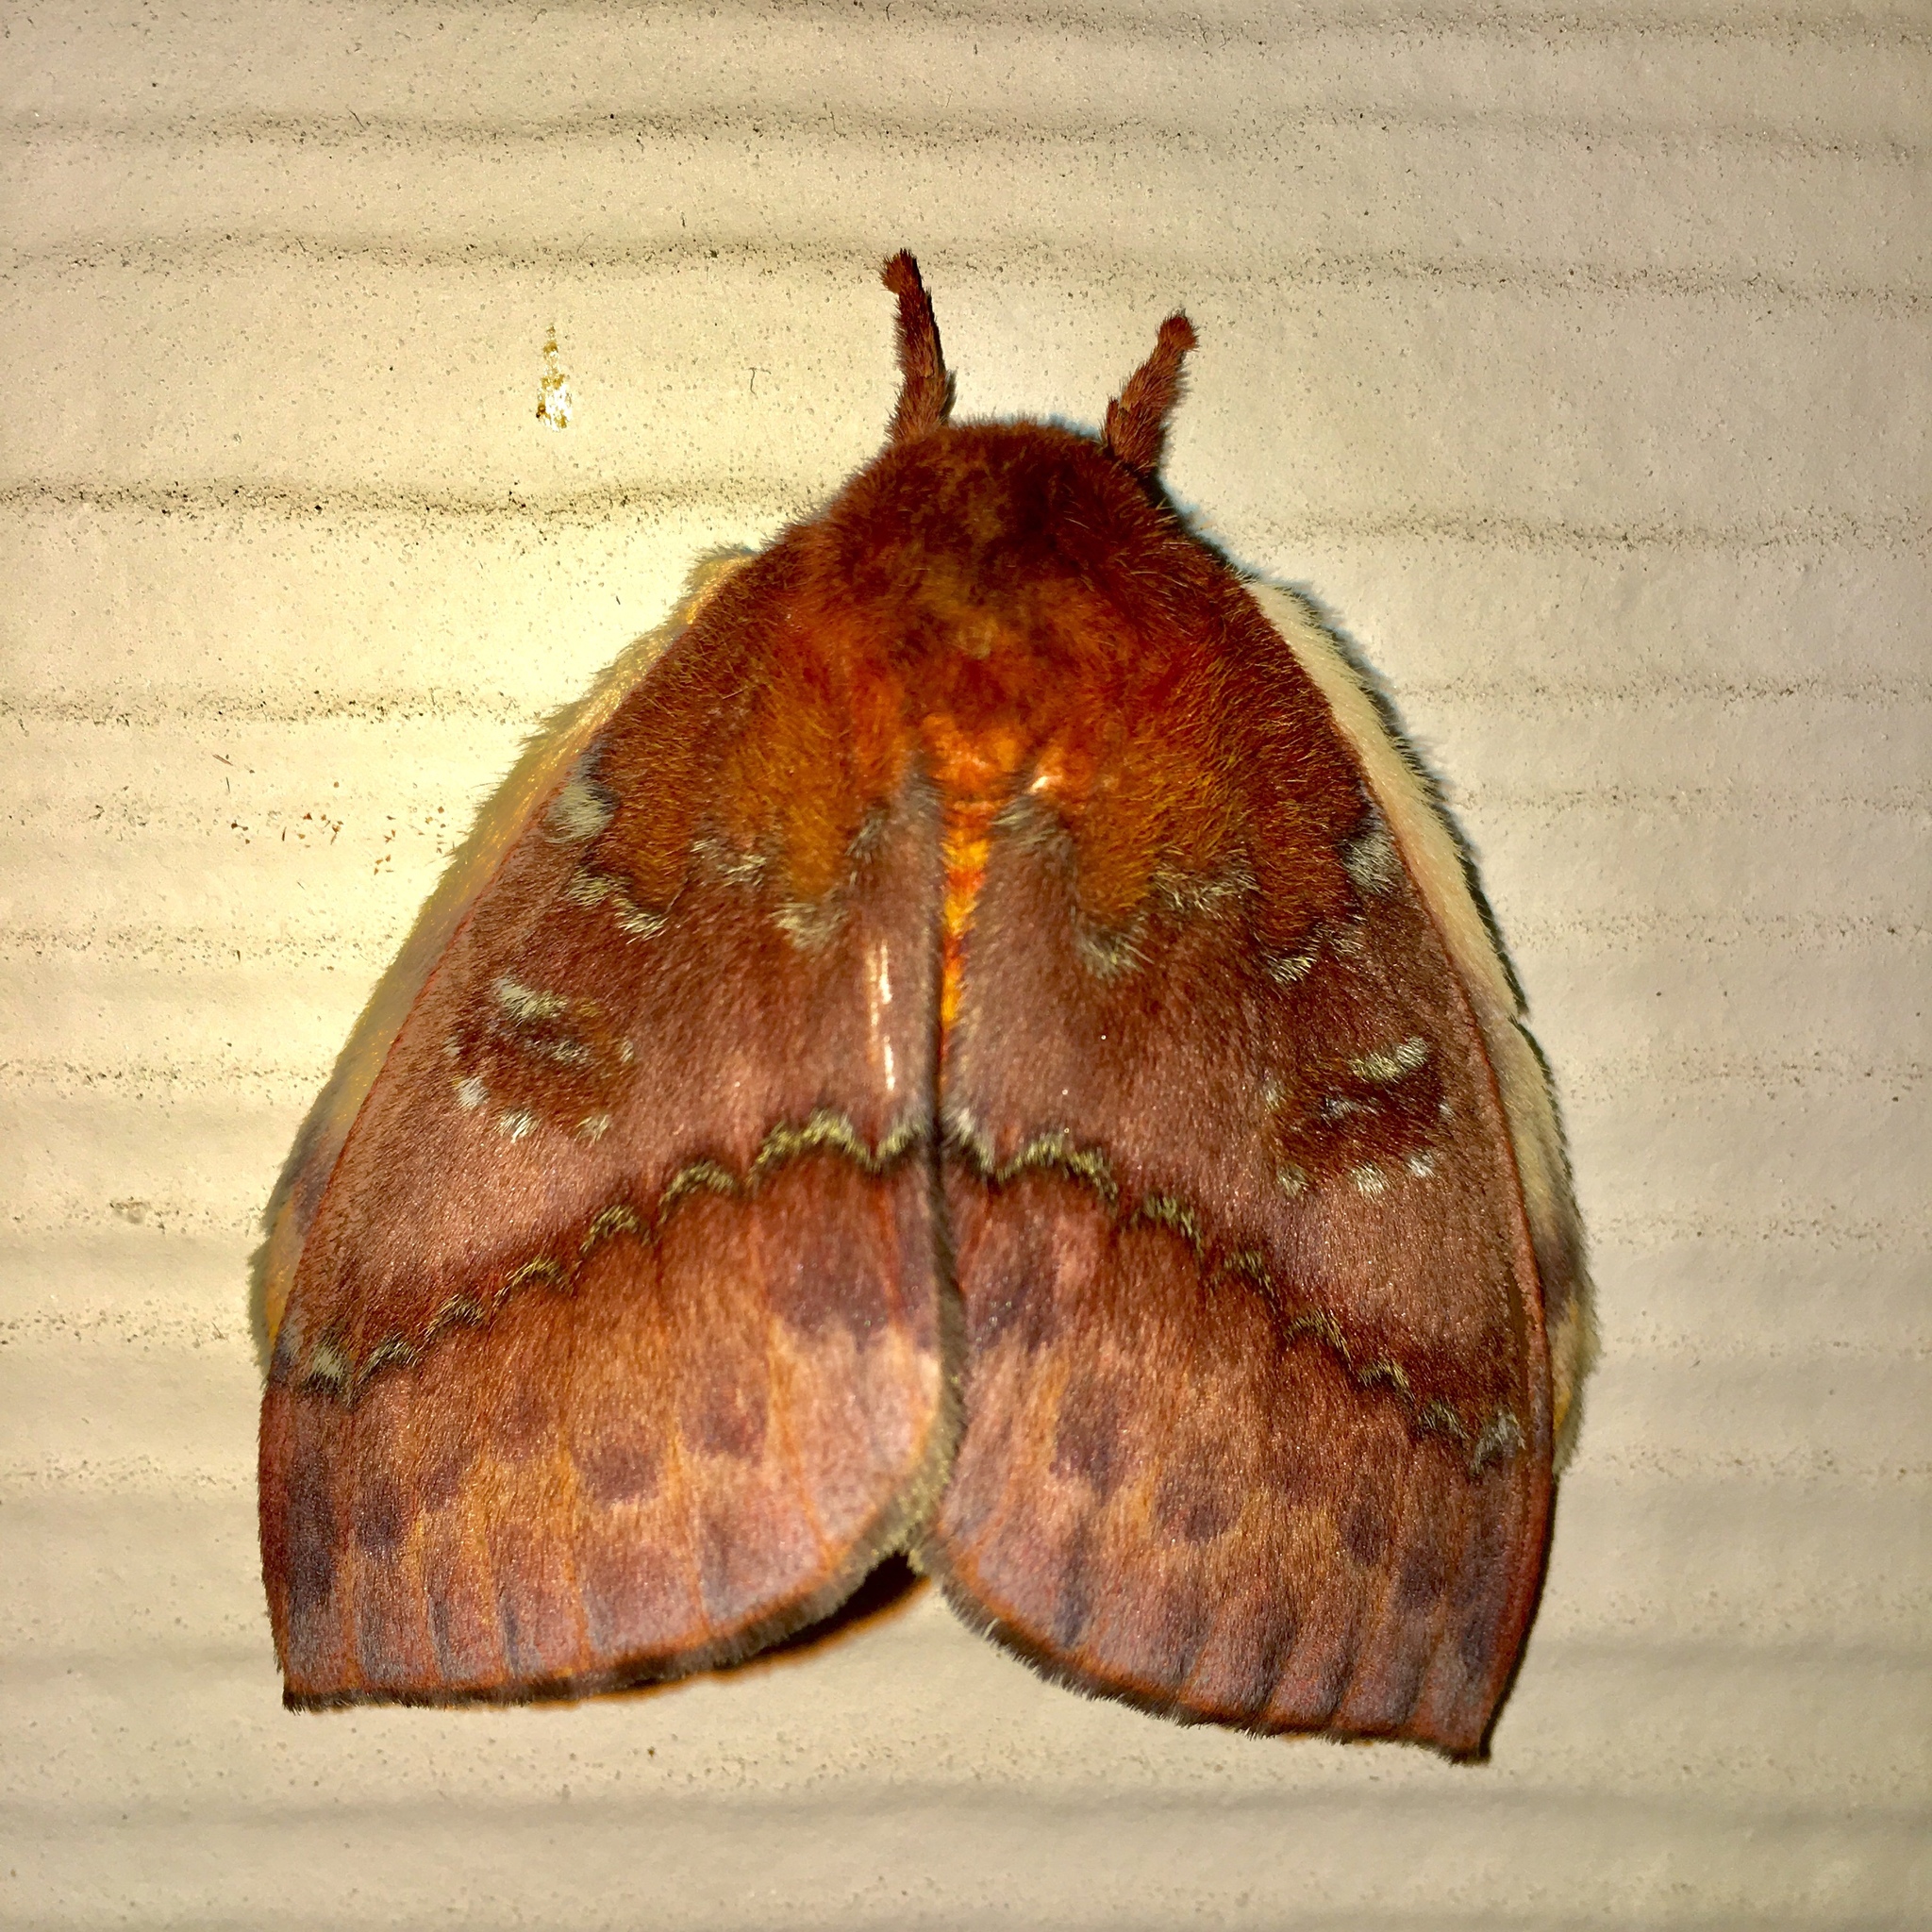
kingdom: Animalia
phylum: Arthropoda
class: Insecta
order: Lepidoptera
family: Saturniidae
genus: Automeris
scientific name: Automeris io
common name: Io moth
